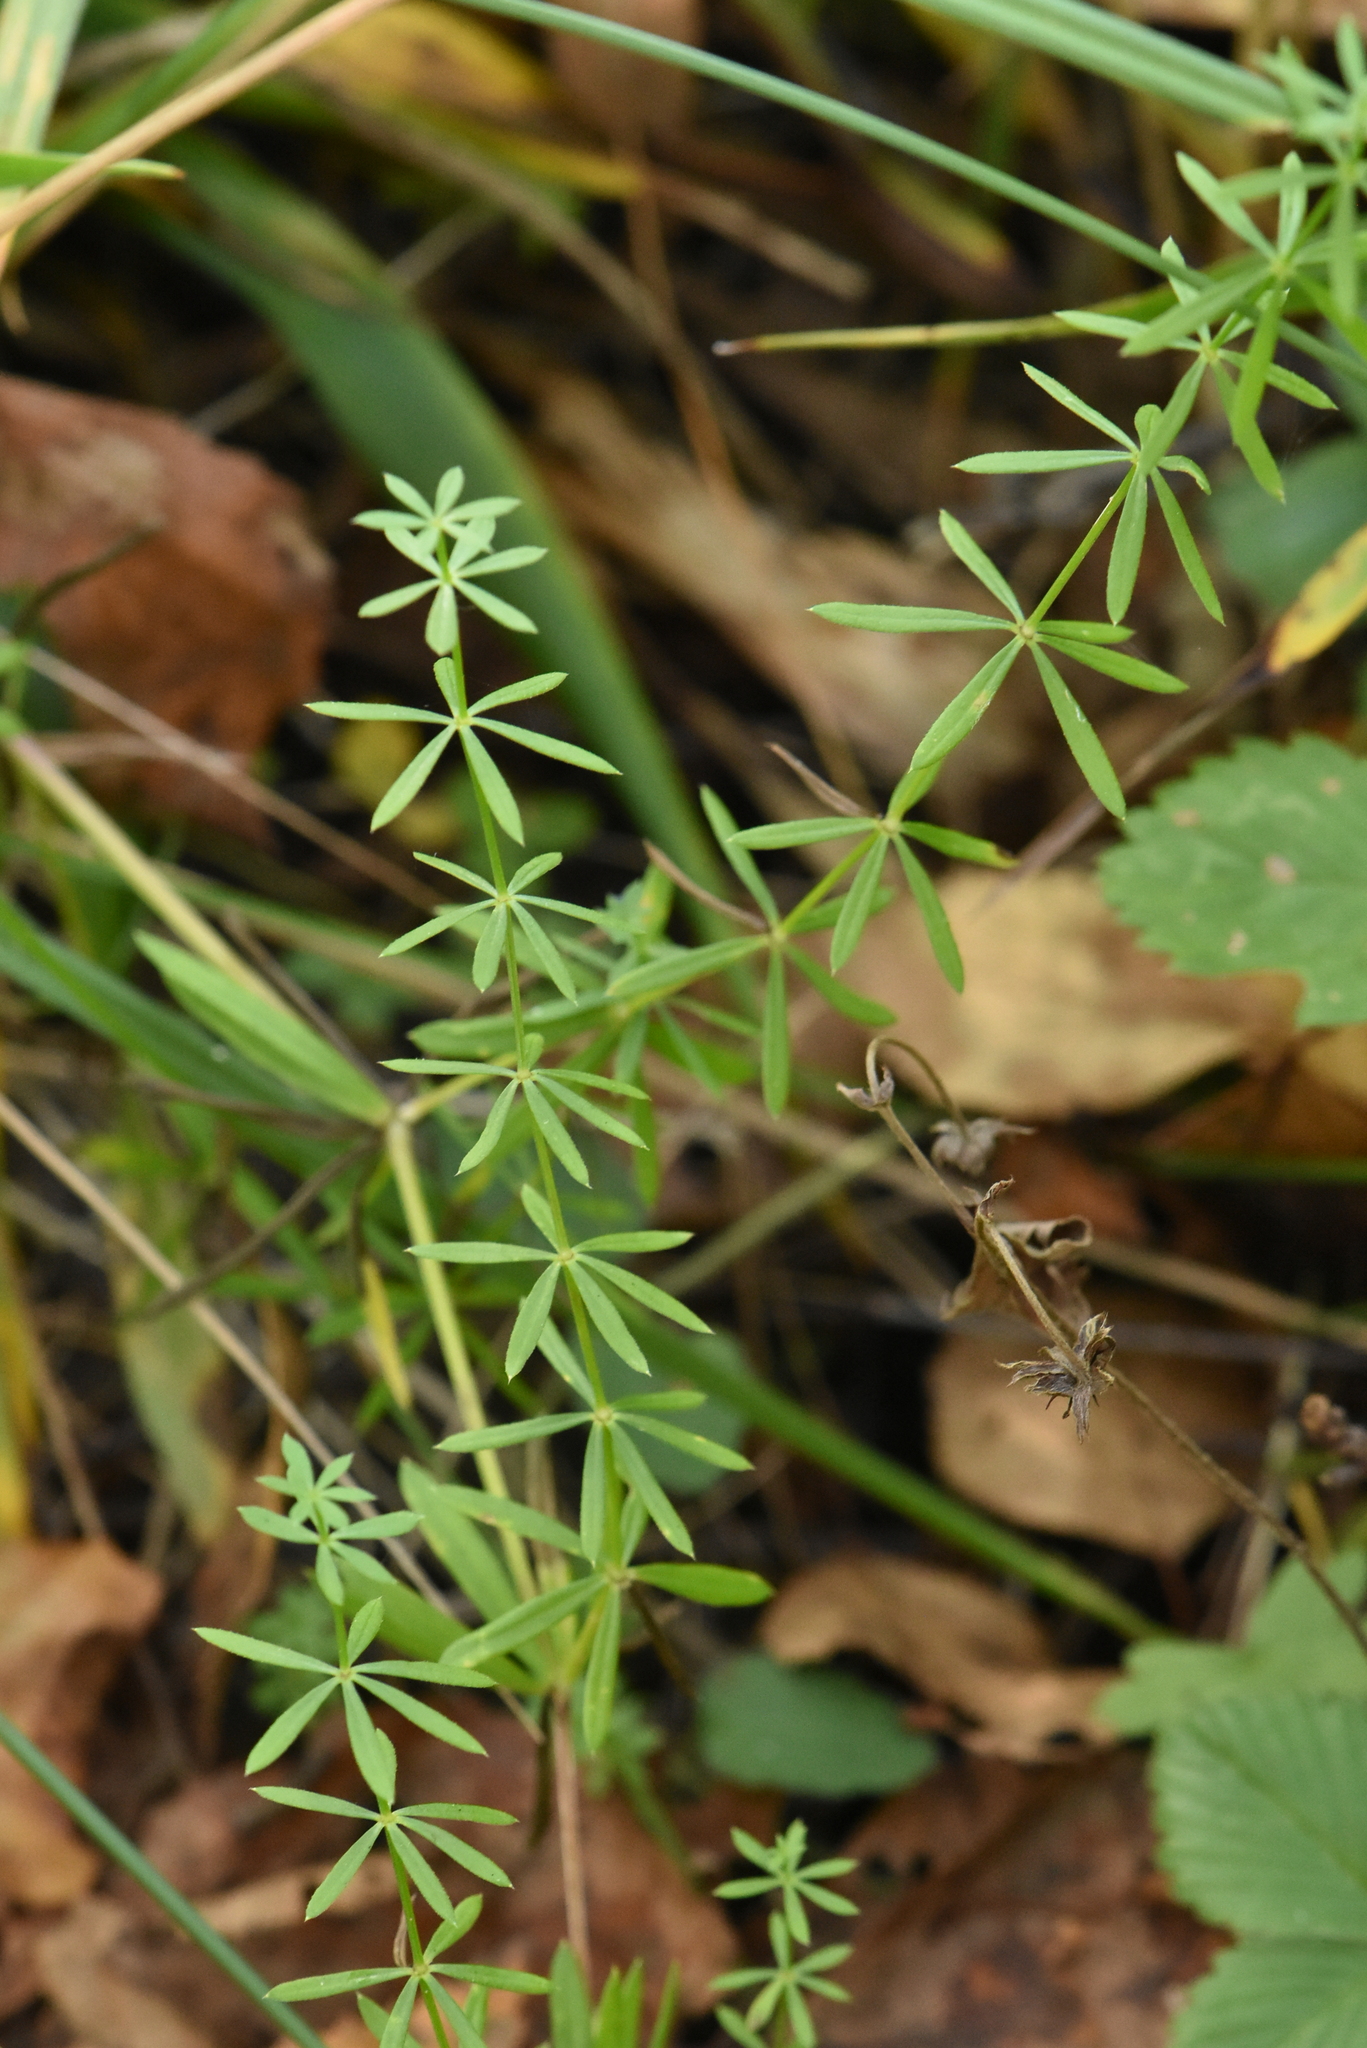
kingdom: Plantae
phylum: Tracheophyta
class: Magnoliopsida
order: Gentianales
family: Rubiaceae
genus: Galium
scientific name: Galium mollugo
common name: Hedge bedstraw
